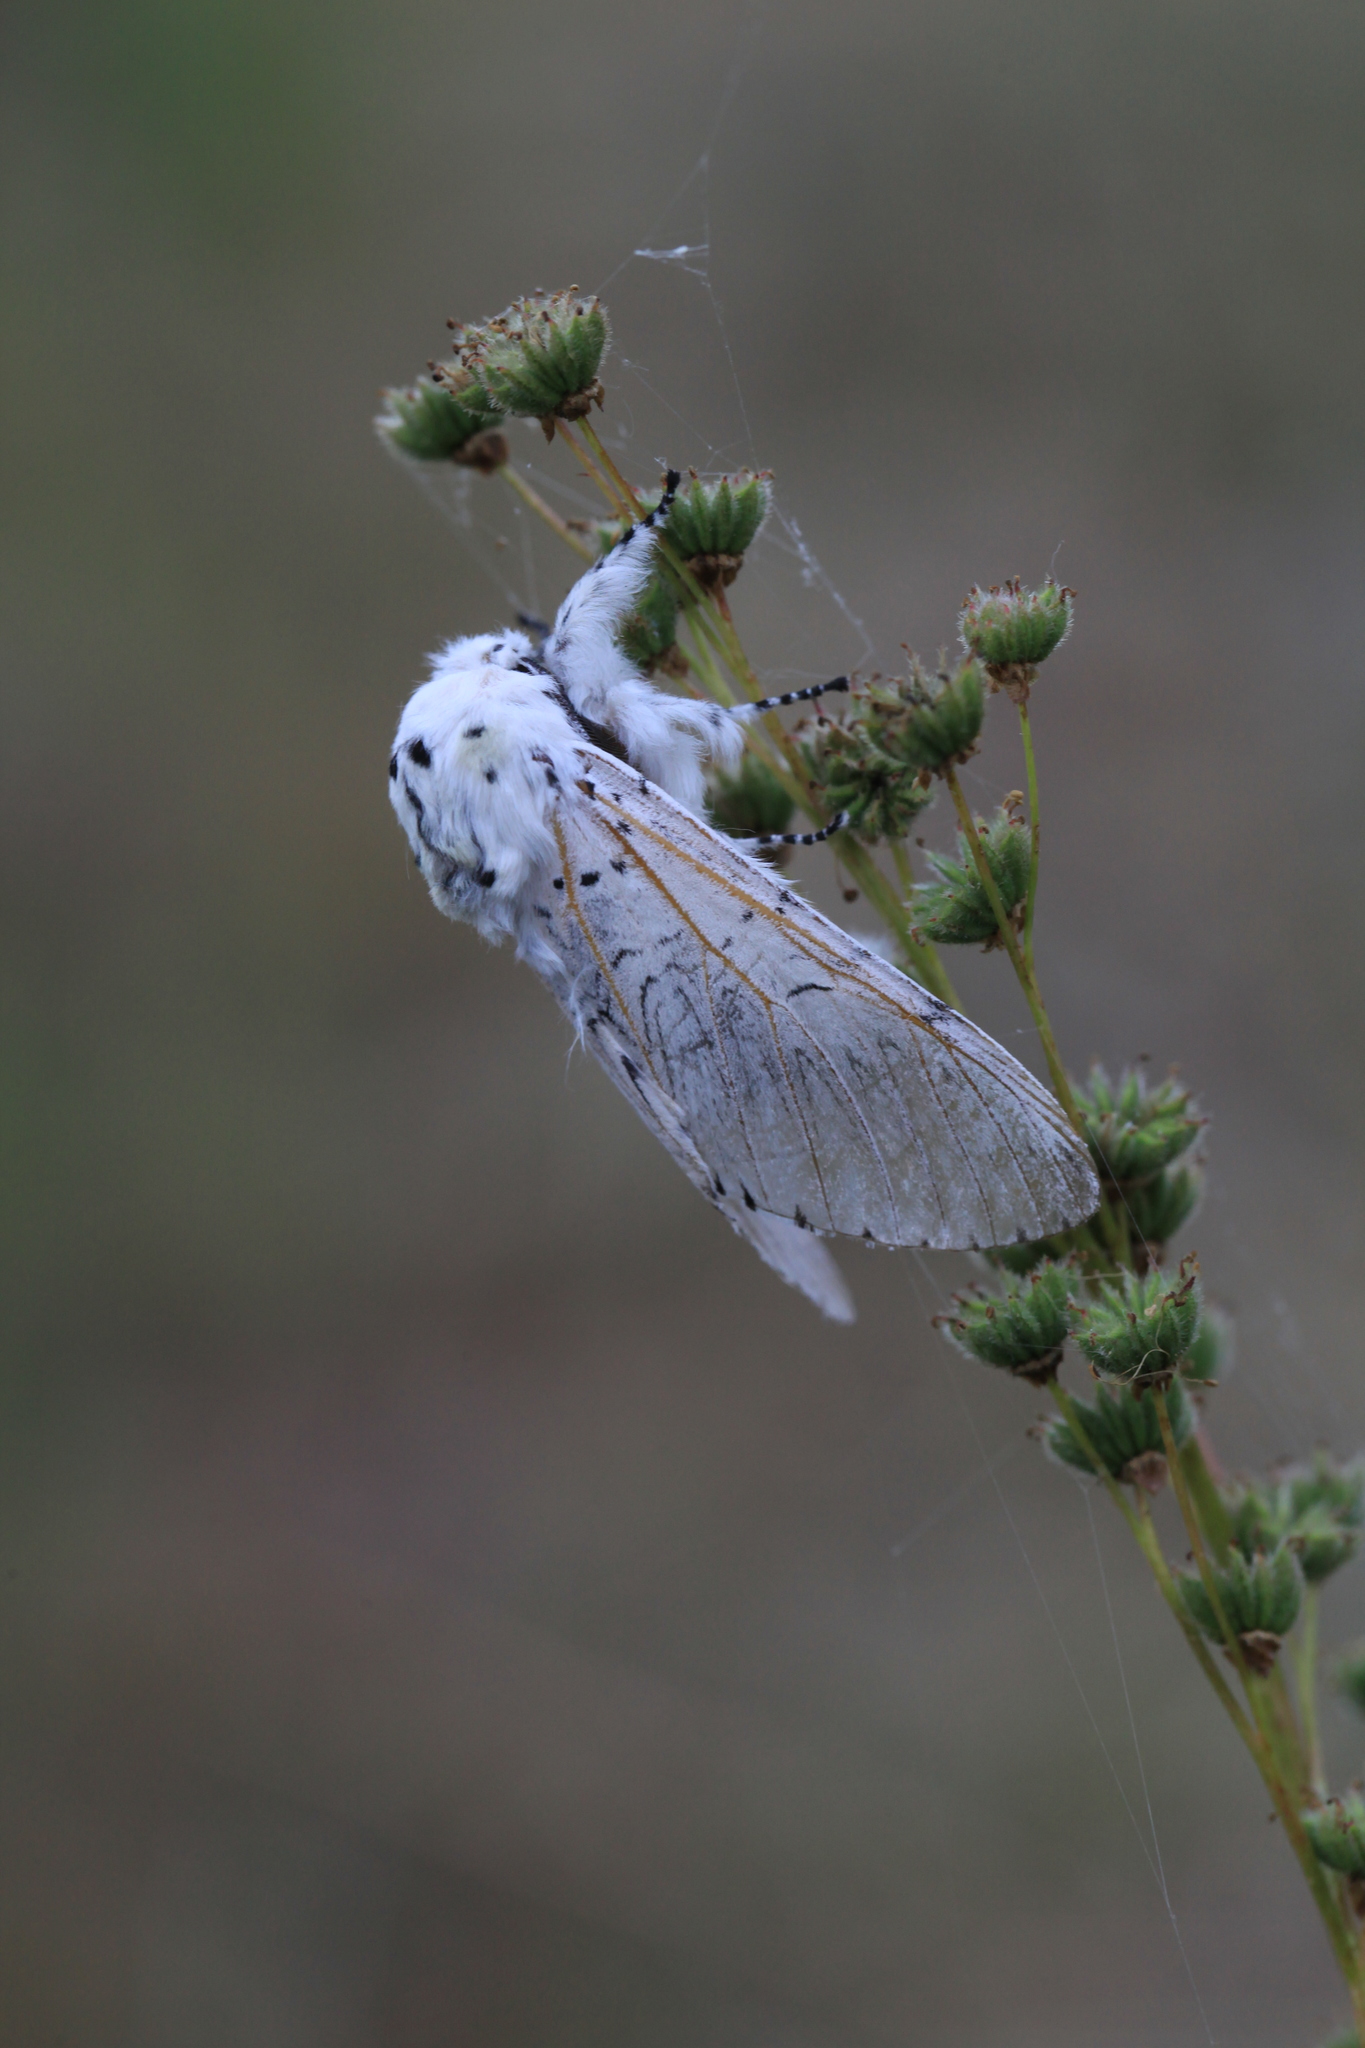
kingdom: Animalia
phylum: Arthropoda
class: Insecta
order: Lepidoptera
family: Notodontidae
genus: Cerura
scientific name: Cerura vinula
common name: Puss moth
